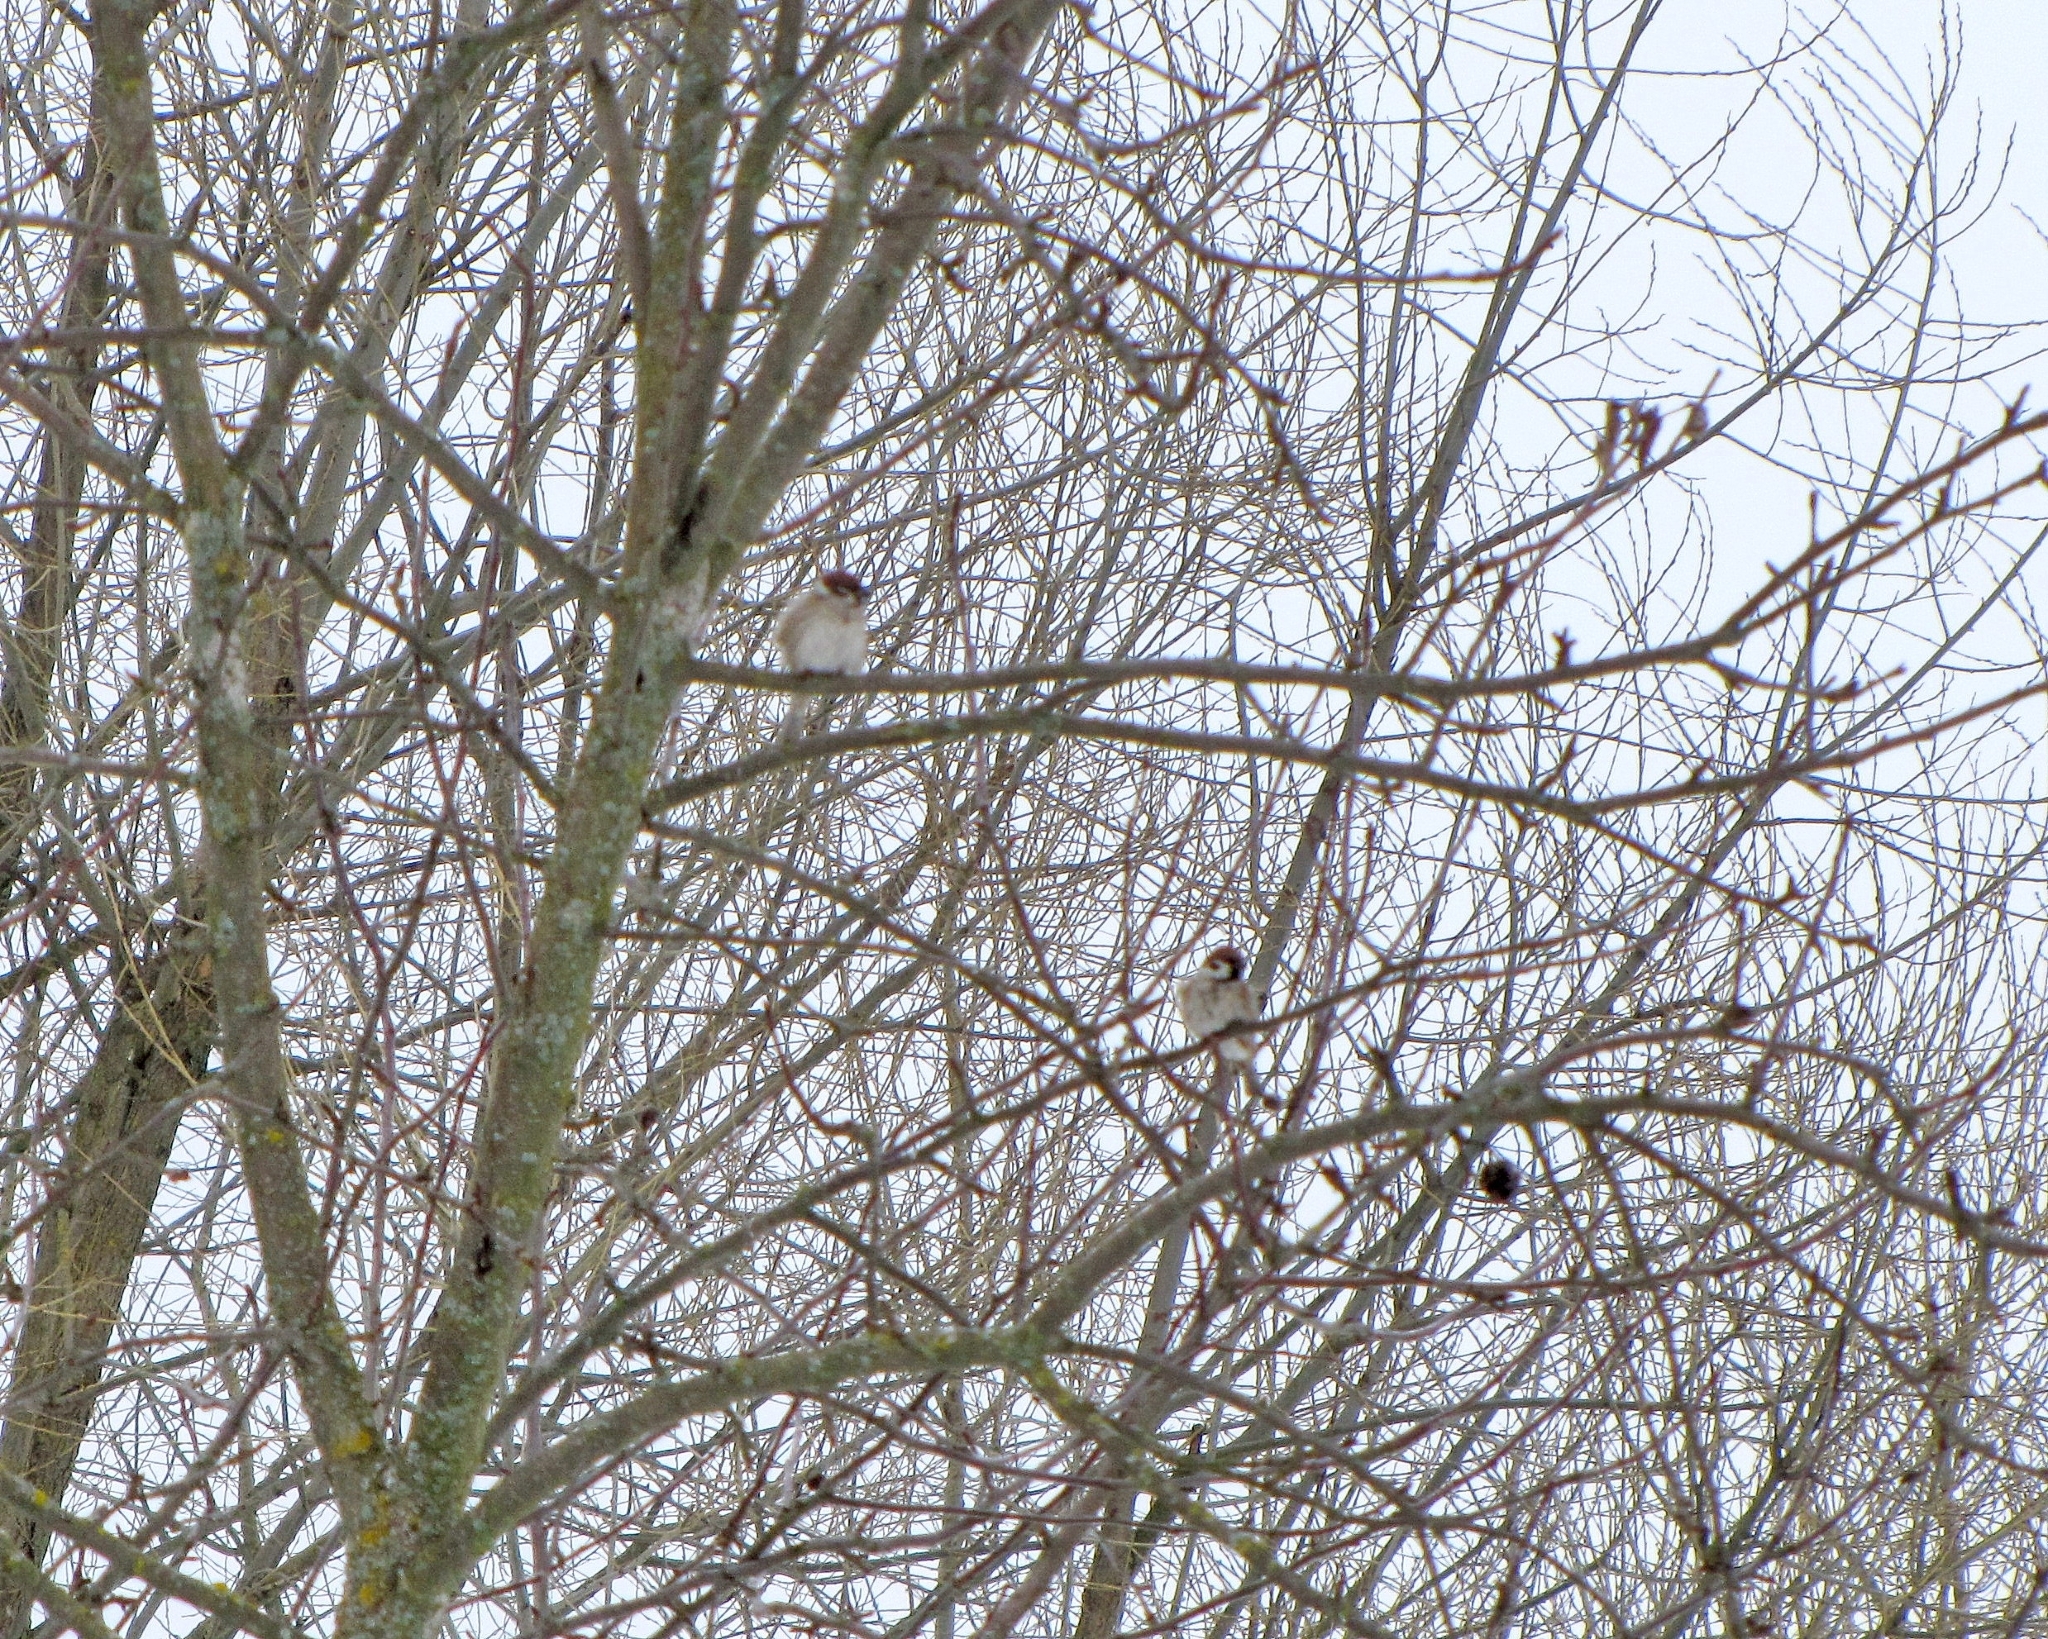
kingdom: Animalia
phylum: Chordata
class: Aves
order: Passeriformes
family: Passeridae
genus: Passer
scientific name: Passer montanus
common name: Eurasian tree sparrow
